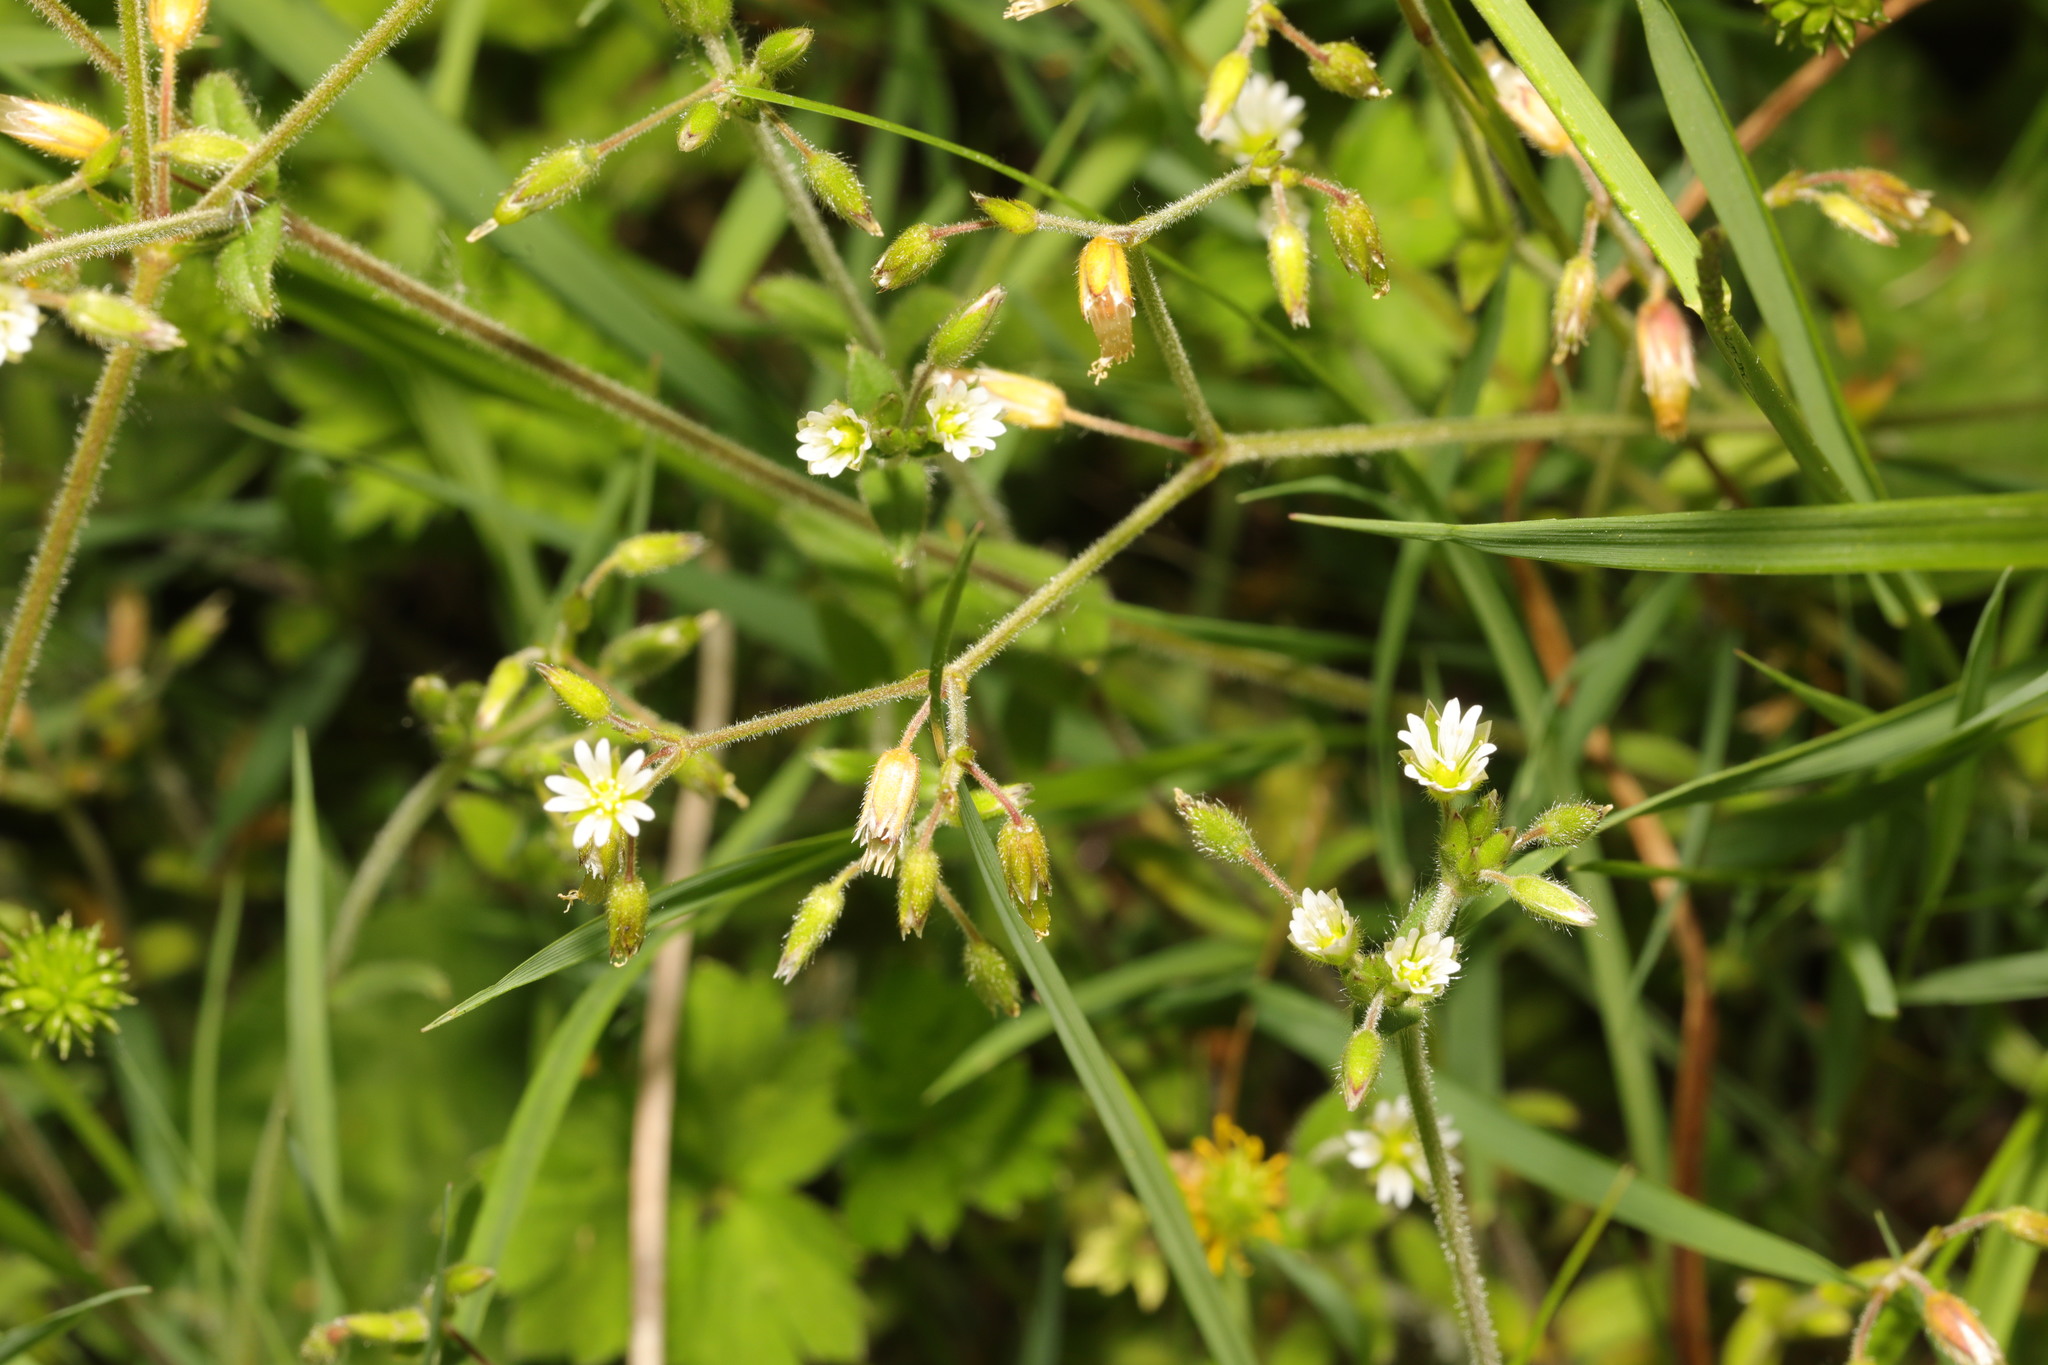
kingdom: Plantae
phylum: Tracheophyta
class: Magnoliopsida
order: Caryophyllales
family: Caryophyllaceae
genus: Cerastium
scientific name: Cerastium fontanum
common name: Common mouse-ear
